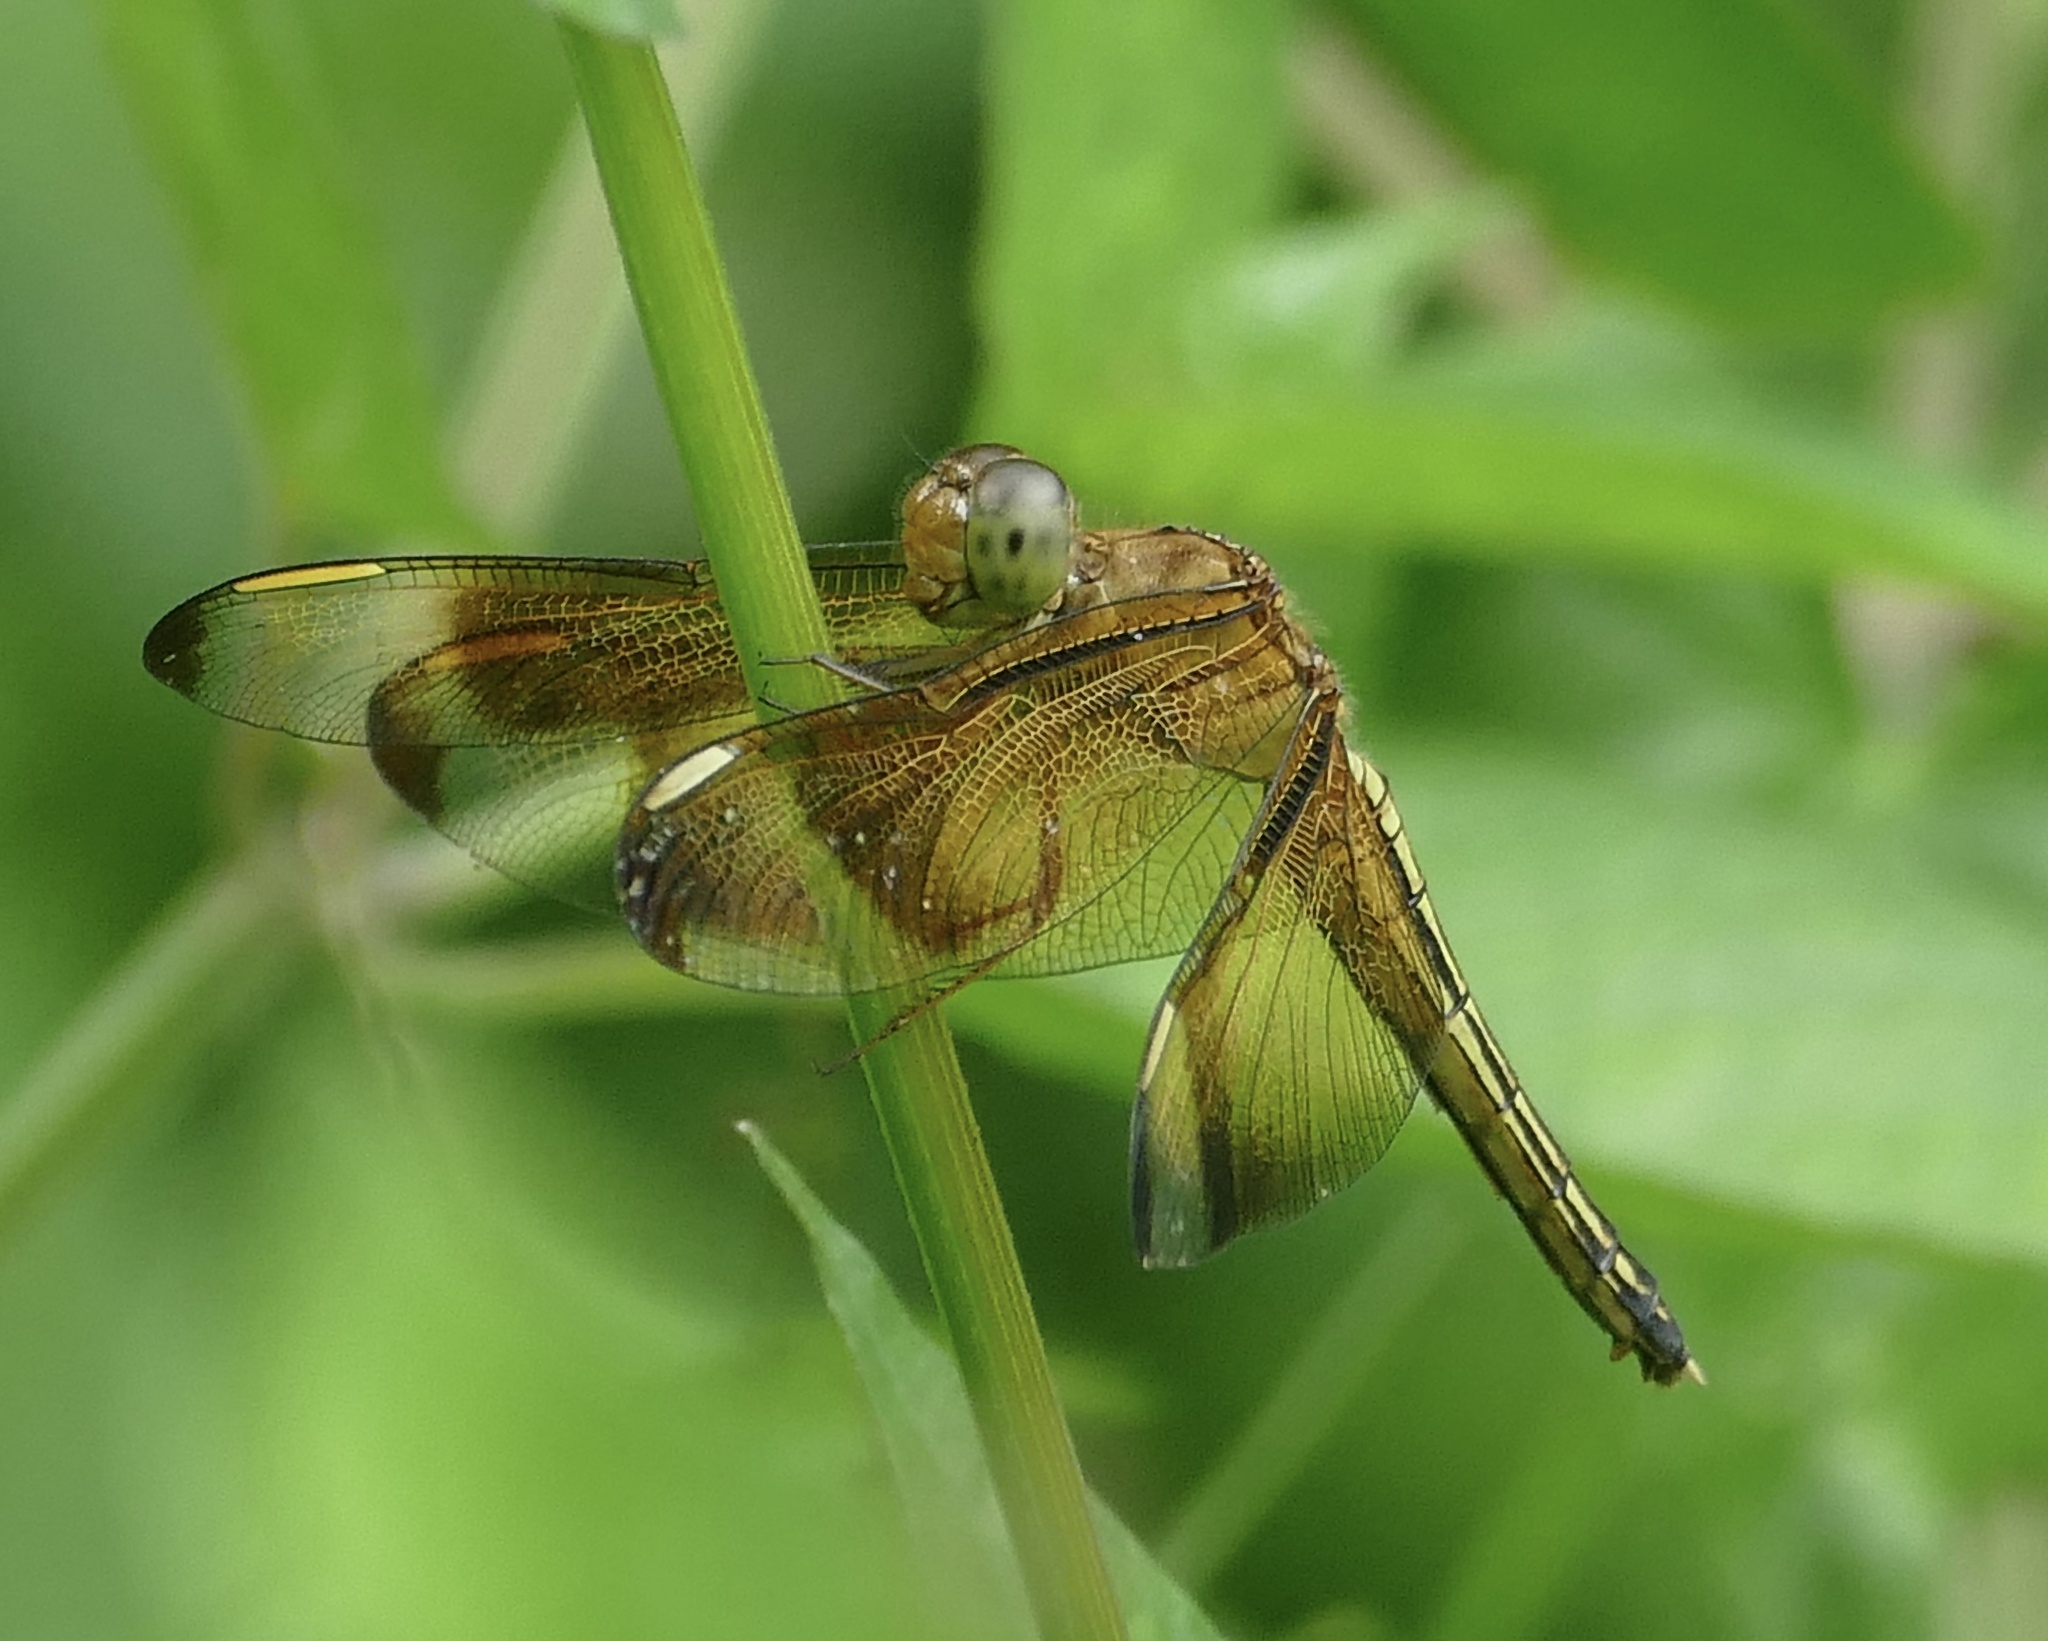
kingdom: Animalia
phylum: Arthropoda
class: Insecta
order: Odonata
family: Libellulidae
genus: Neurothemis
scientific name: Neurothemis manadensis
